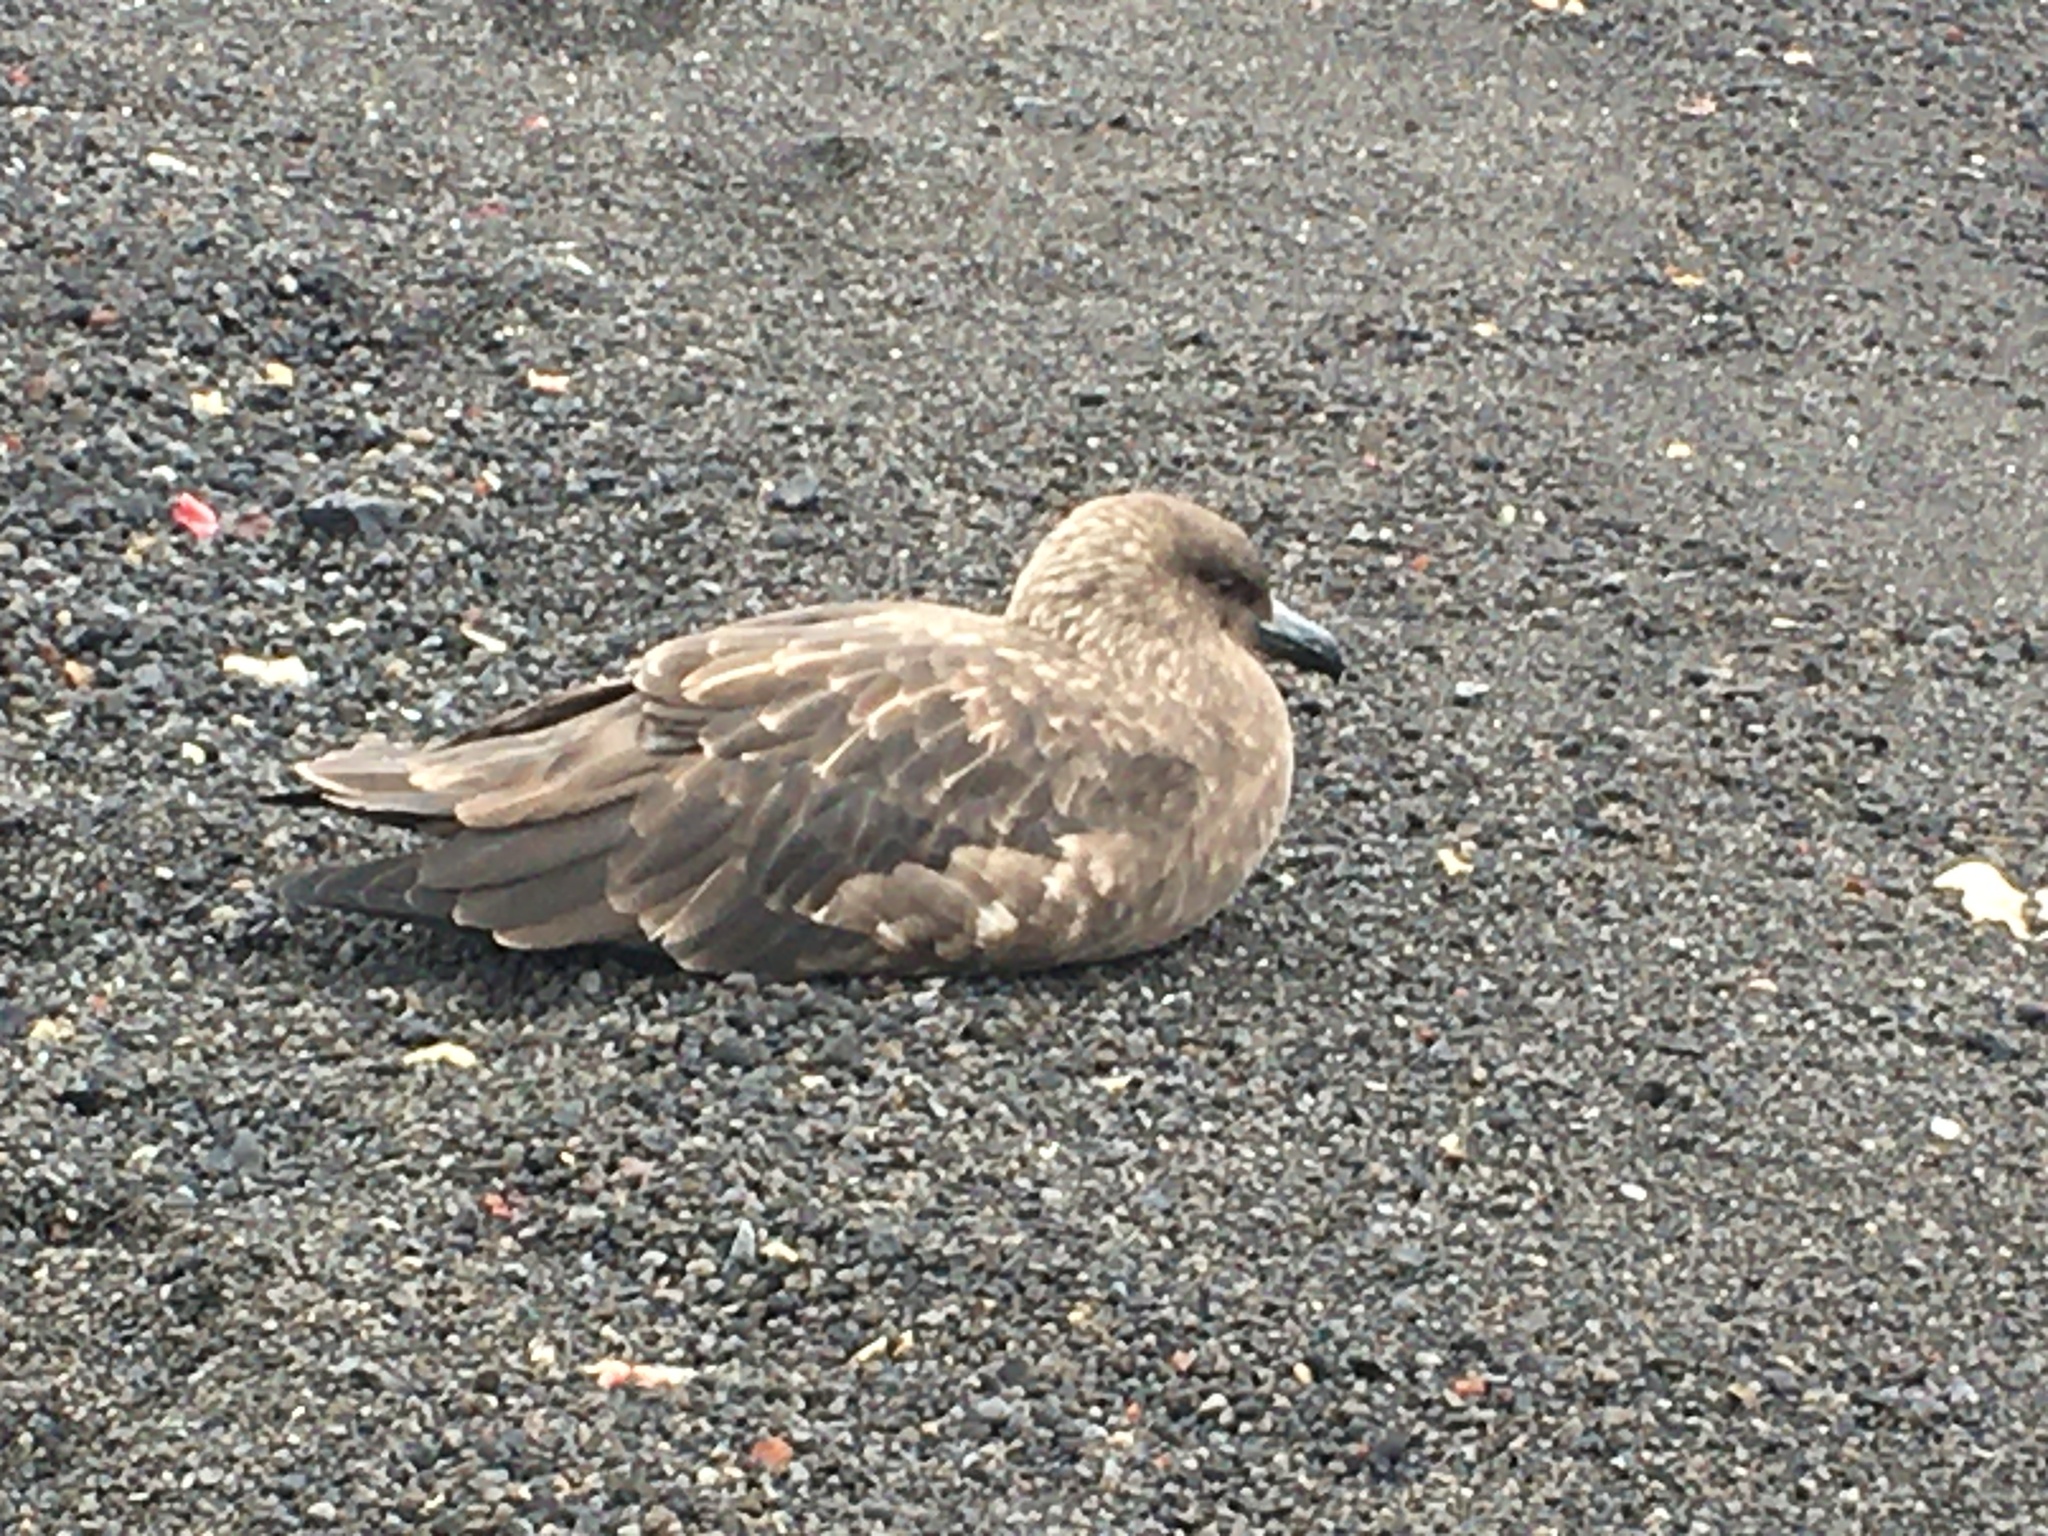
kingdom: Animalia
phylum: Chordata
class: Aves
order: Charadriiformes
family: Stercorariidae
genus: Stercorarius
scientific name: Stercorarius antarcticus
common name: Brown skua
